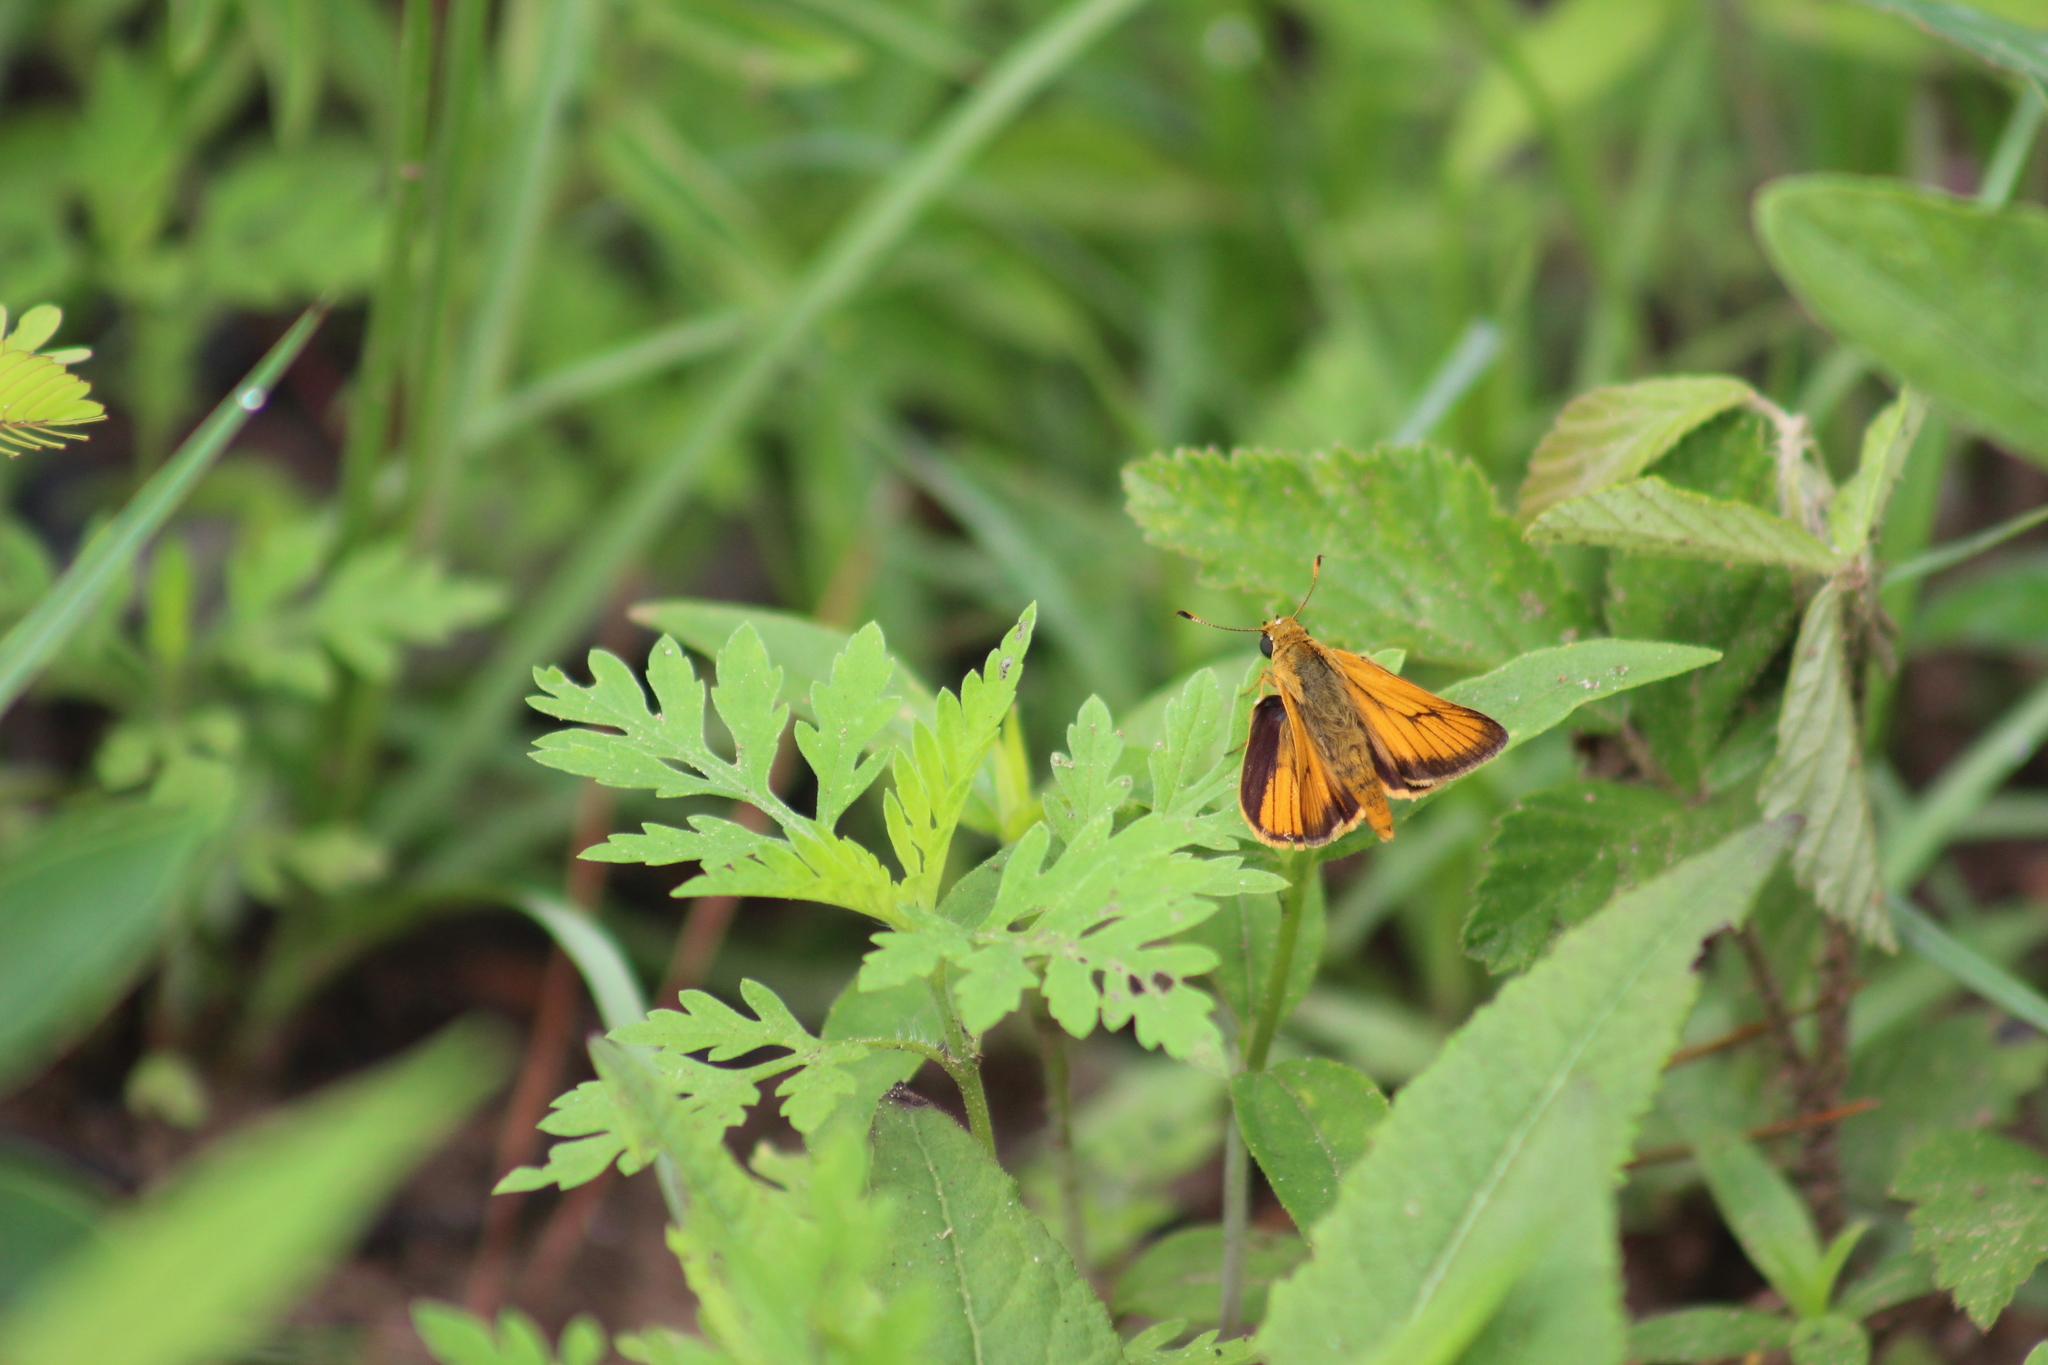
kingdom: Animalia
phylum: Arthropoda
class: Insecta
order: Lepidoptera
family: Hesperiidae
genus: Atrytone
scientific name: Atrytone delaware
